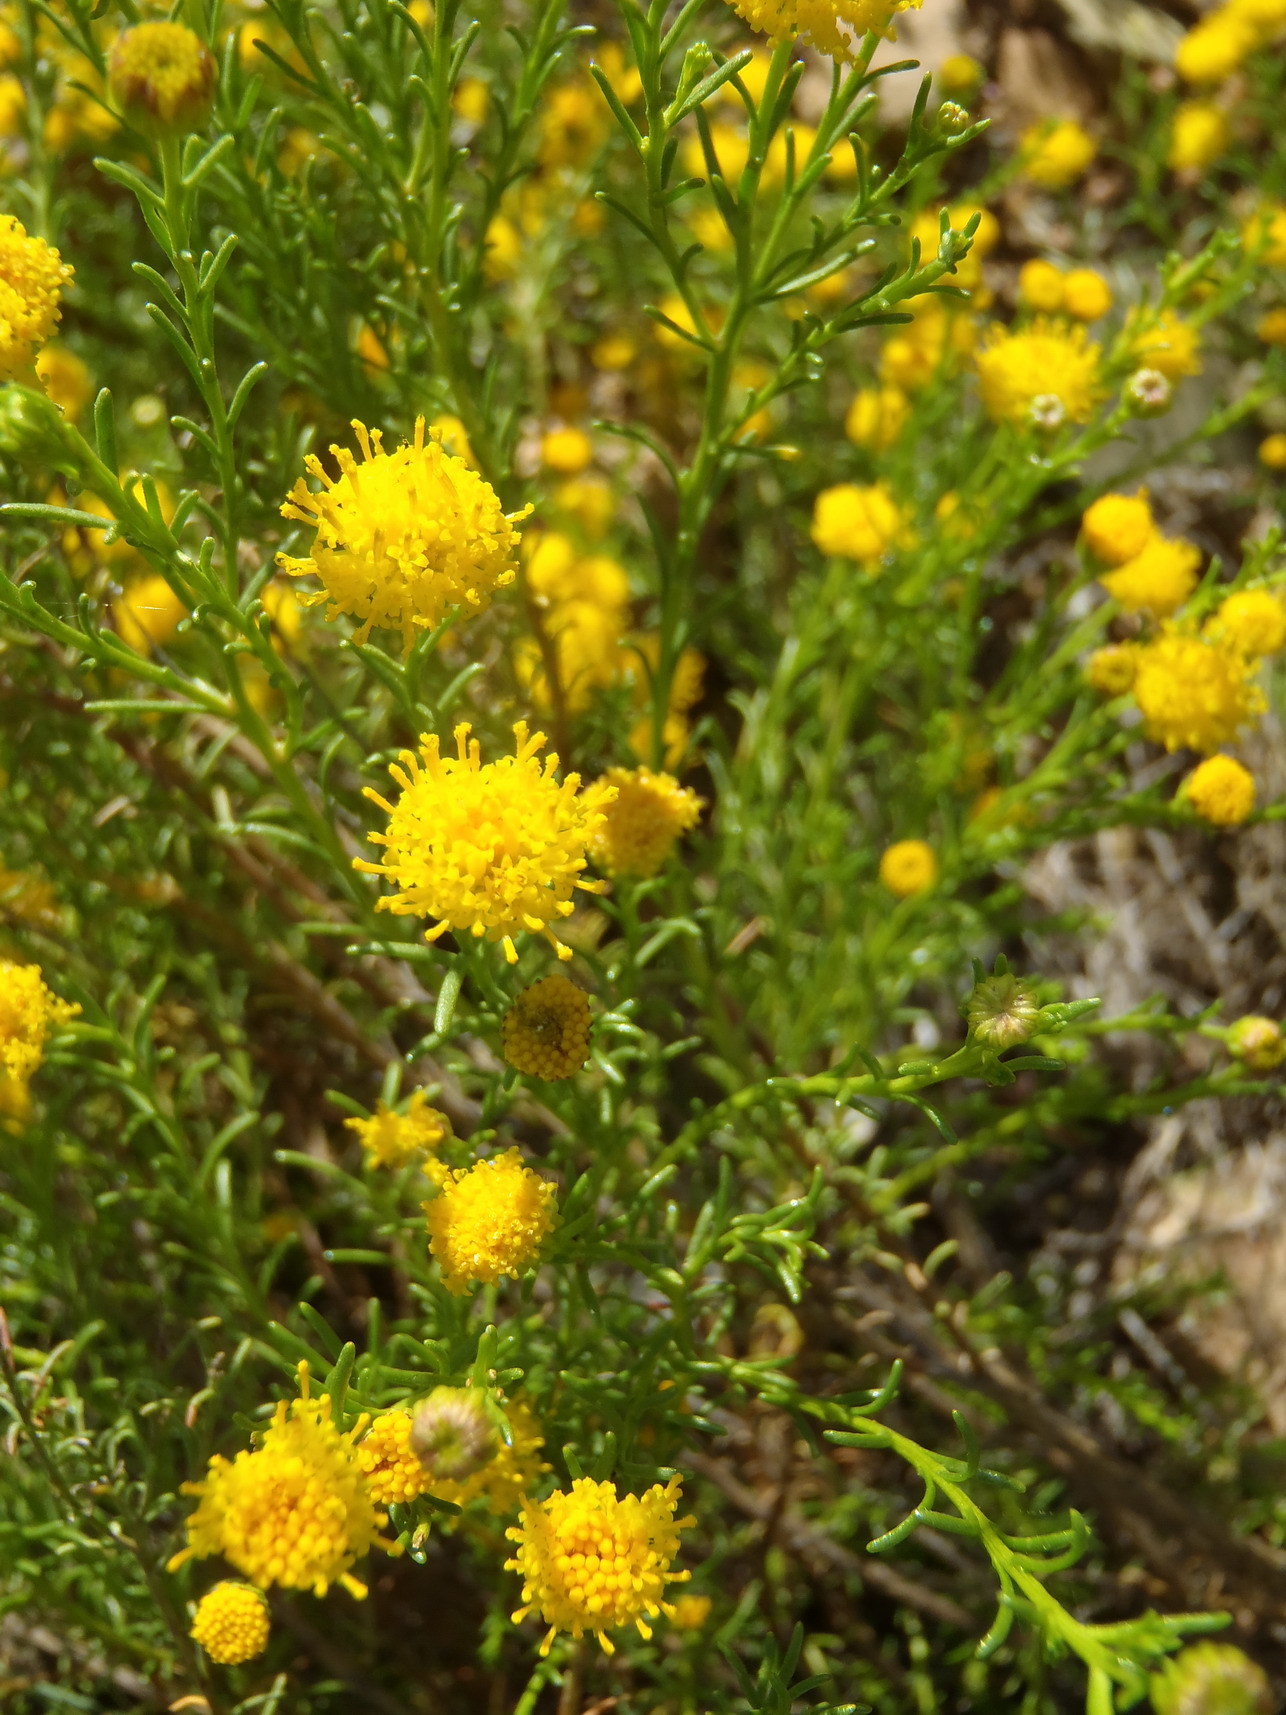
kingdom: Plantae
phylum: Tracheophyta
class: Magnoliopsida
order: Asterales
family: Asteraceae
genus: Chrysocoma
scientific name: Chrysocoma ciliata
